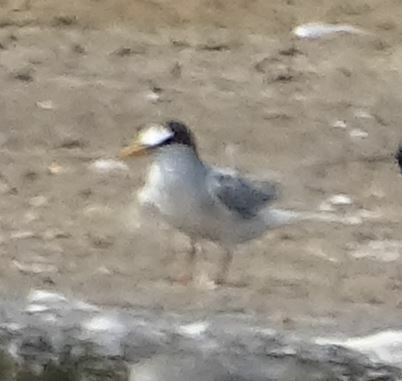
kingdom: Animalia
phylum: Chordata
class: Aves
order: Charadriiformes
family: Laridae
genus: Sternula
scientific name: Sternula albifrons
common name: Little tern
